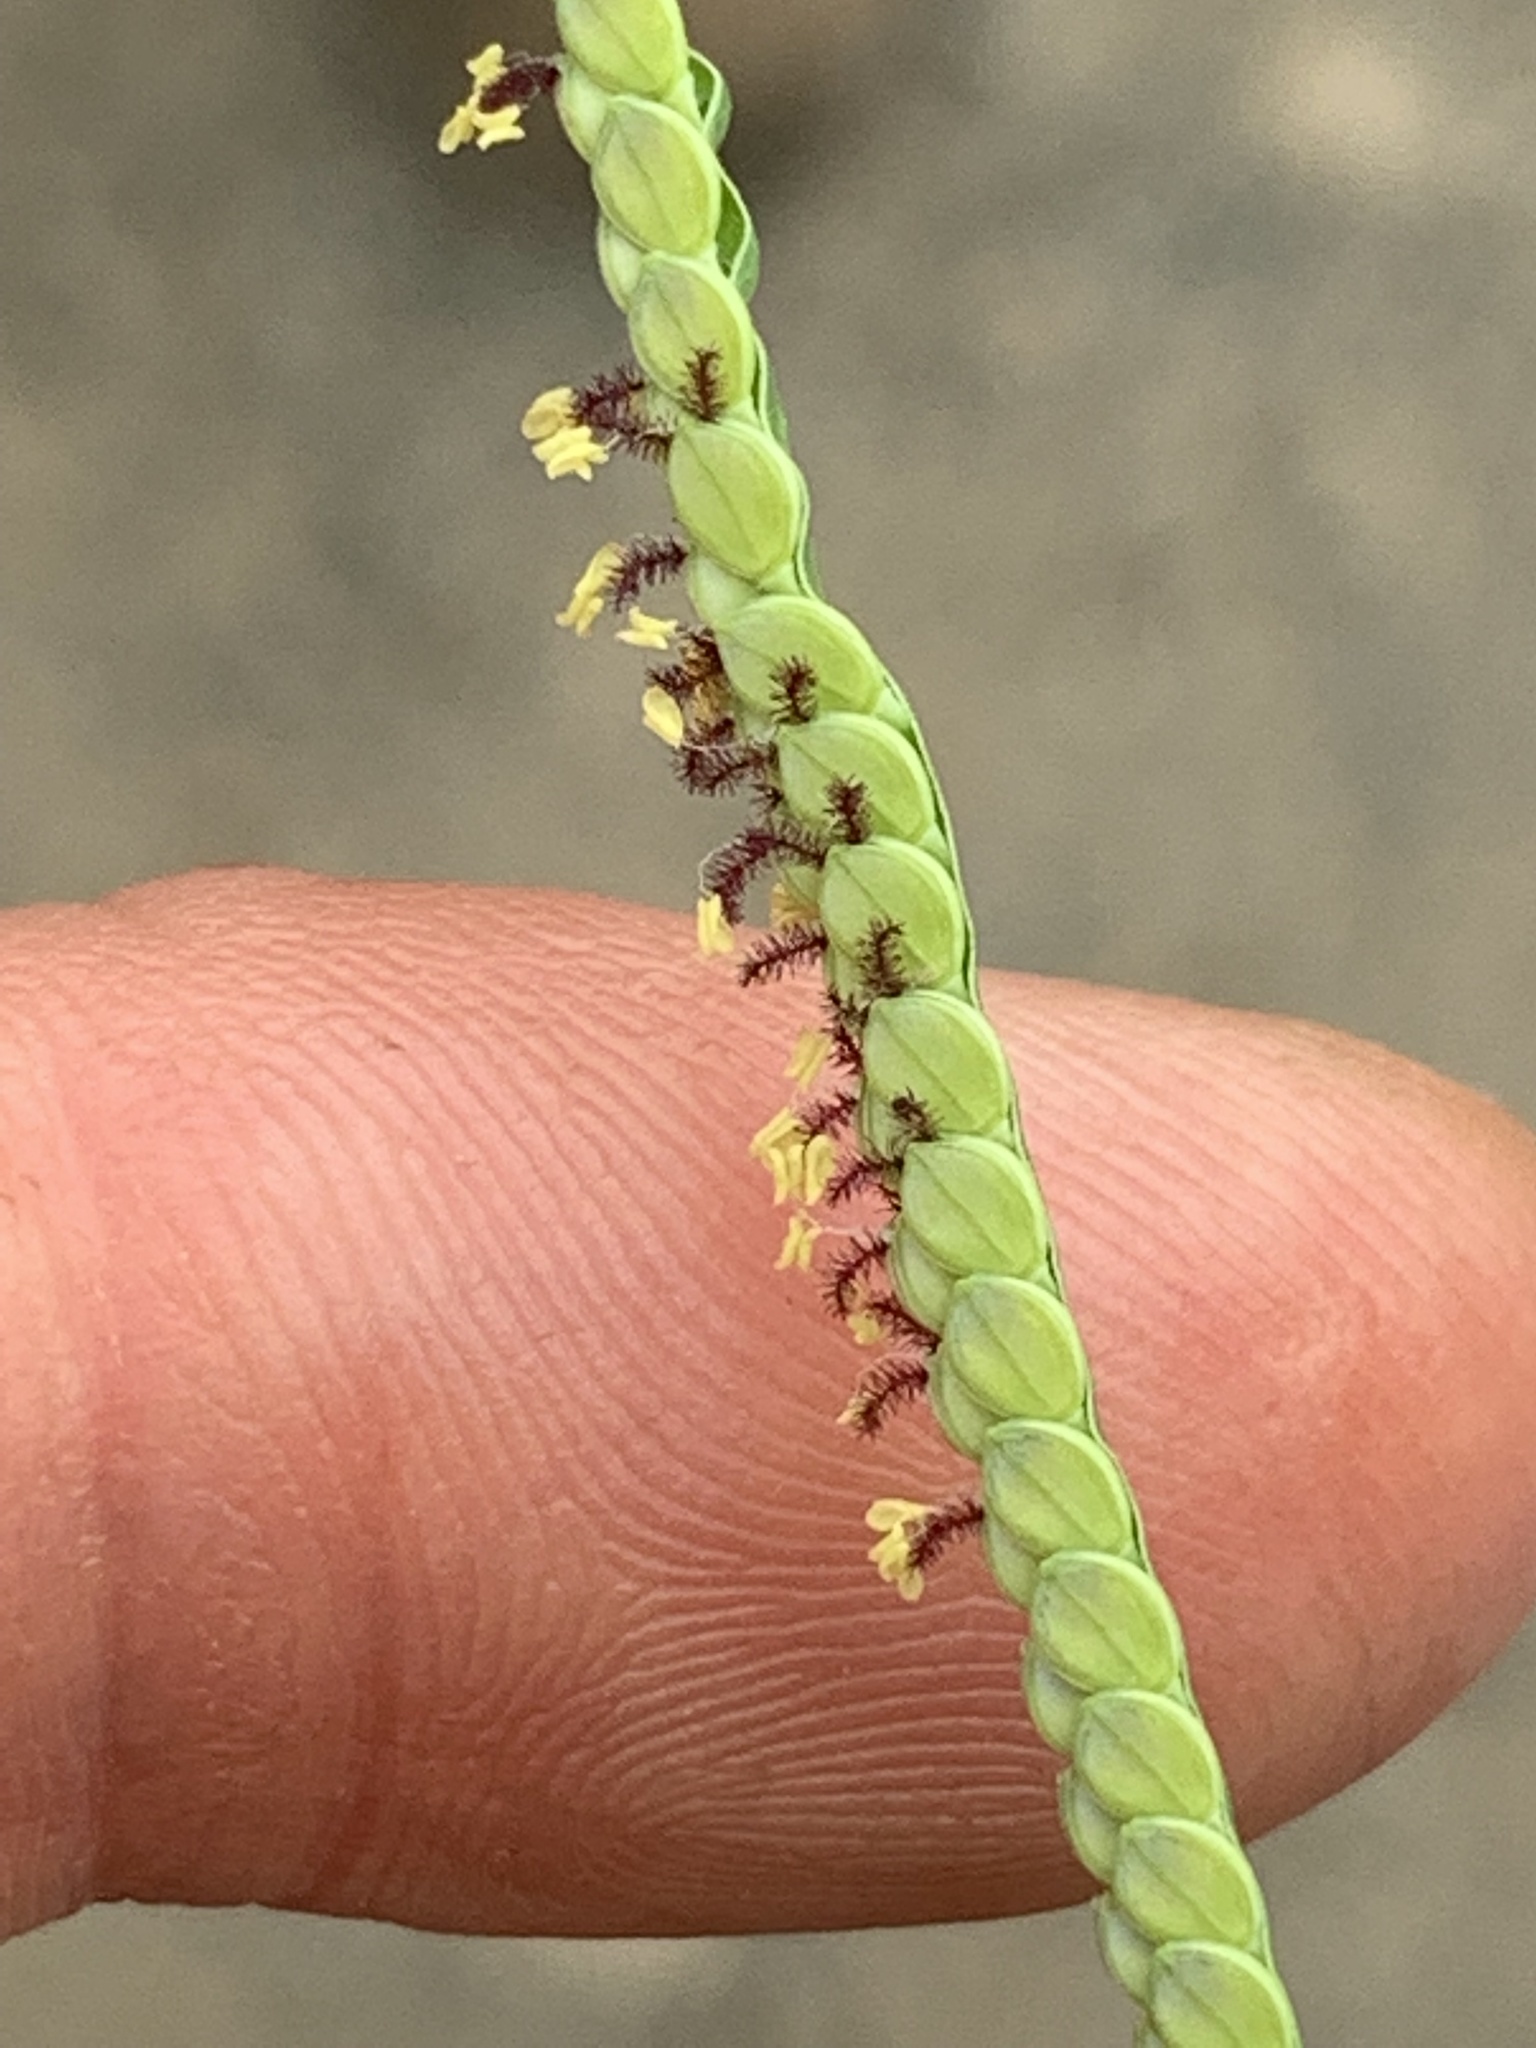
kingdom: Plantae
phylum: Tracheophyta
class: Liliopsida
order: Poales
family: Poaceae
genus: Paspalum
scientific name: Paspalum laeve
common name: Field paspalum
